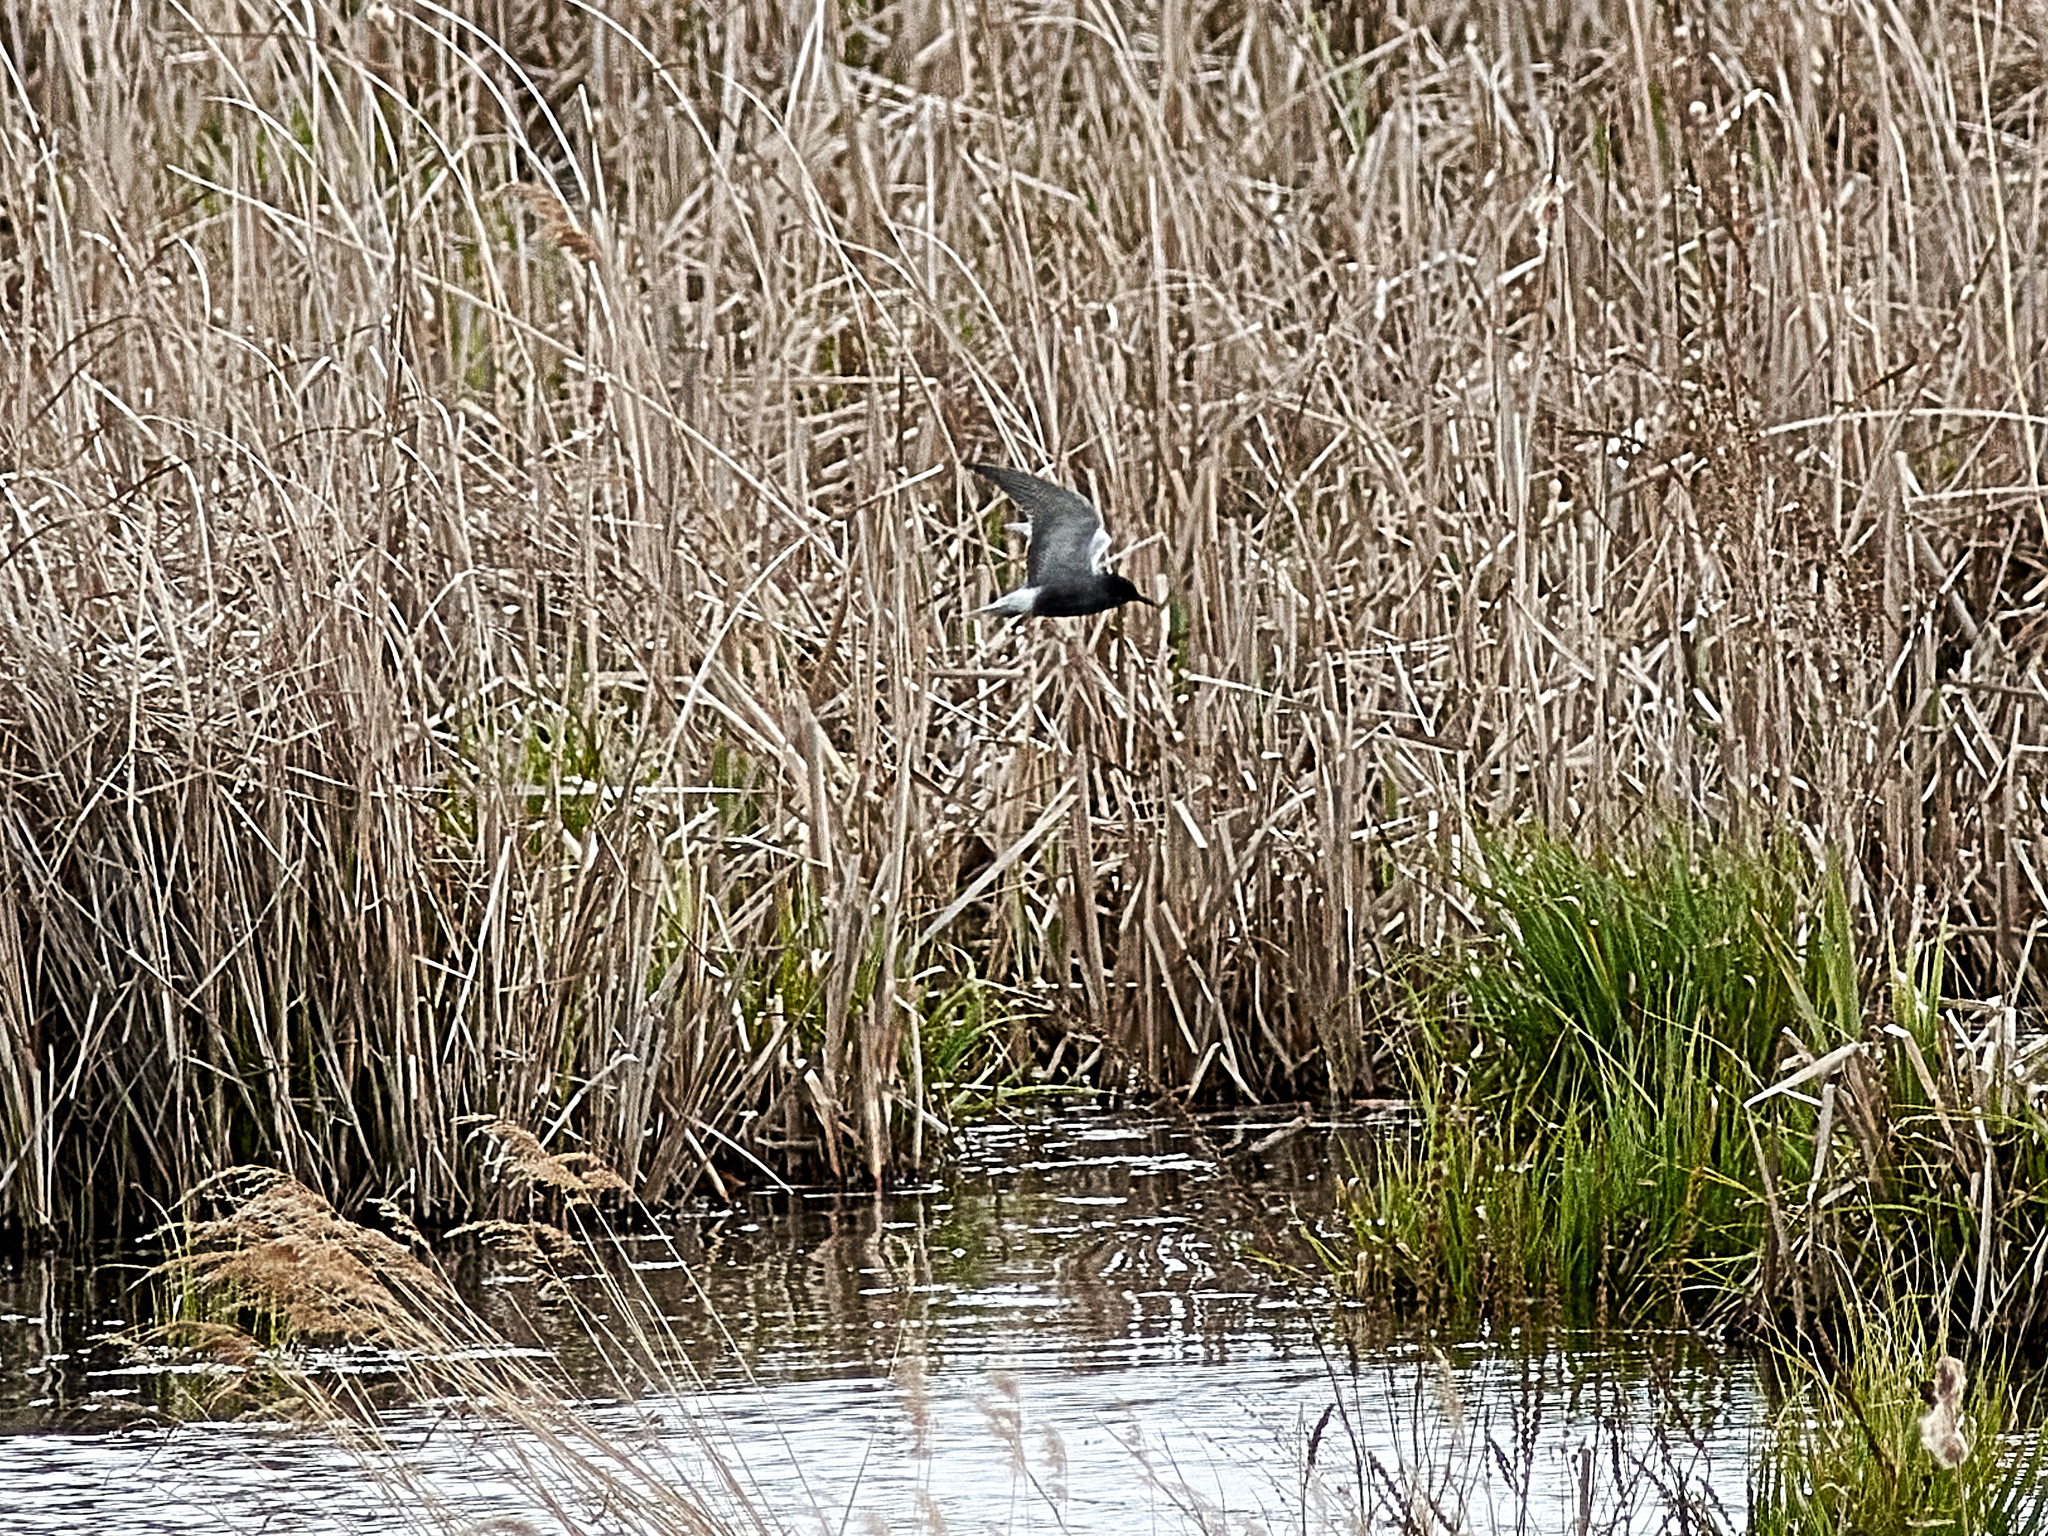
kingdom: Animalia
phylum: Chordata
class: Aves
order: Charadriiformes
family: Laridae
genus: Chlidonias
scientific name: Chlidonias niger
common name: Black tern
